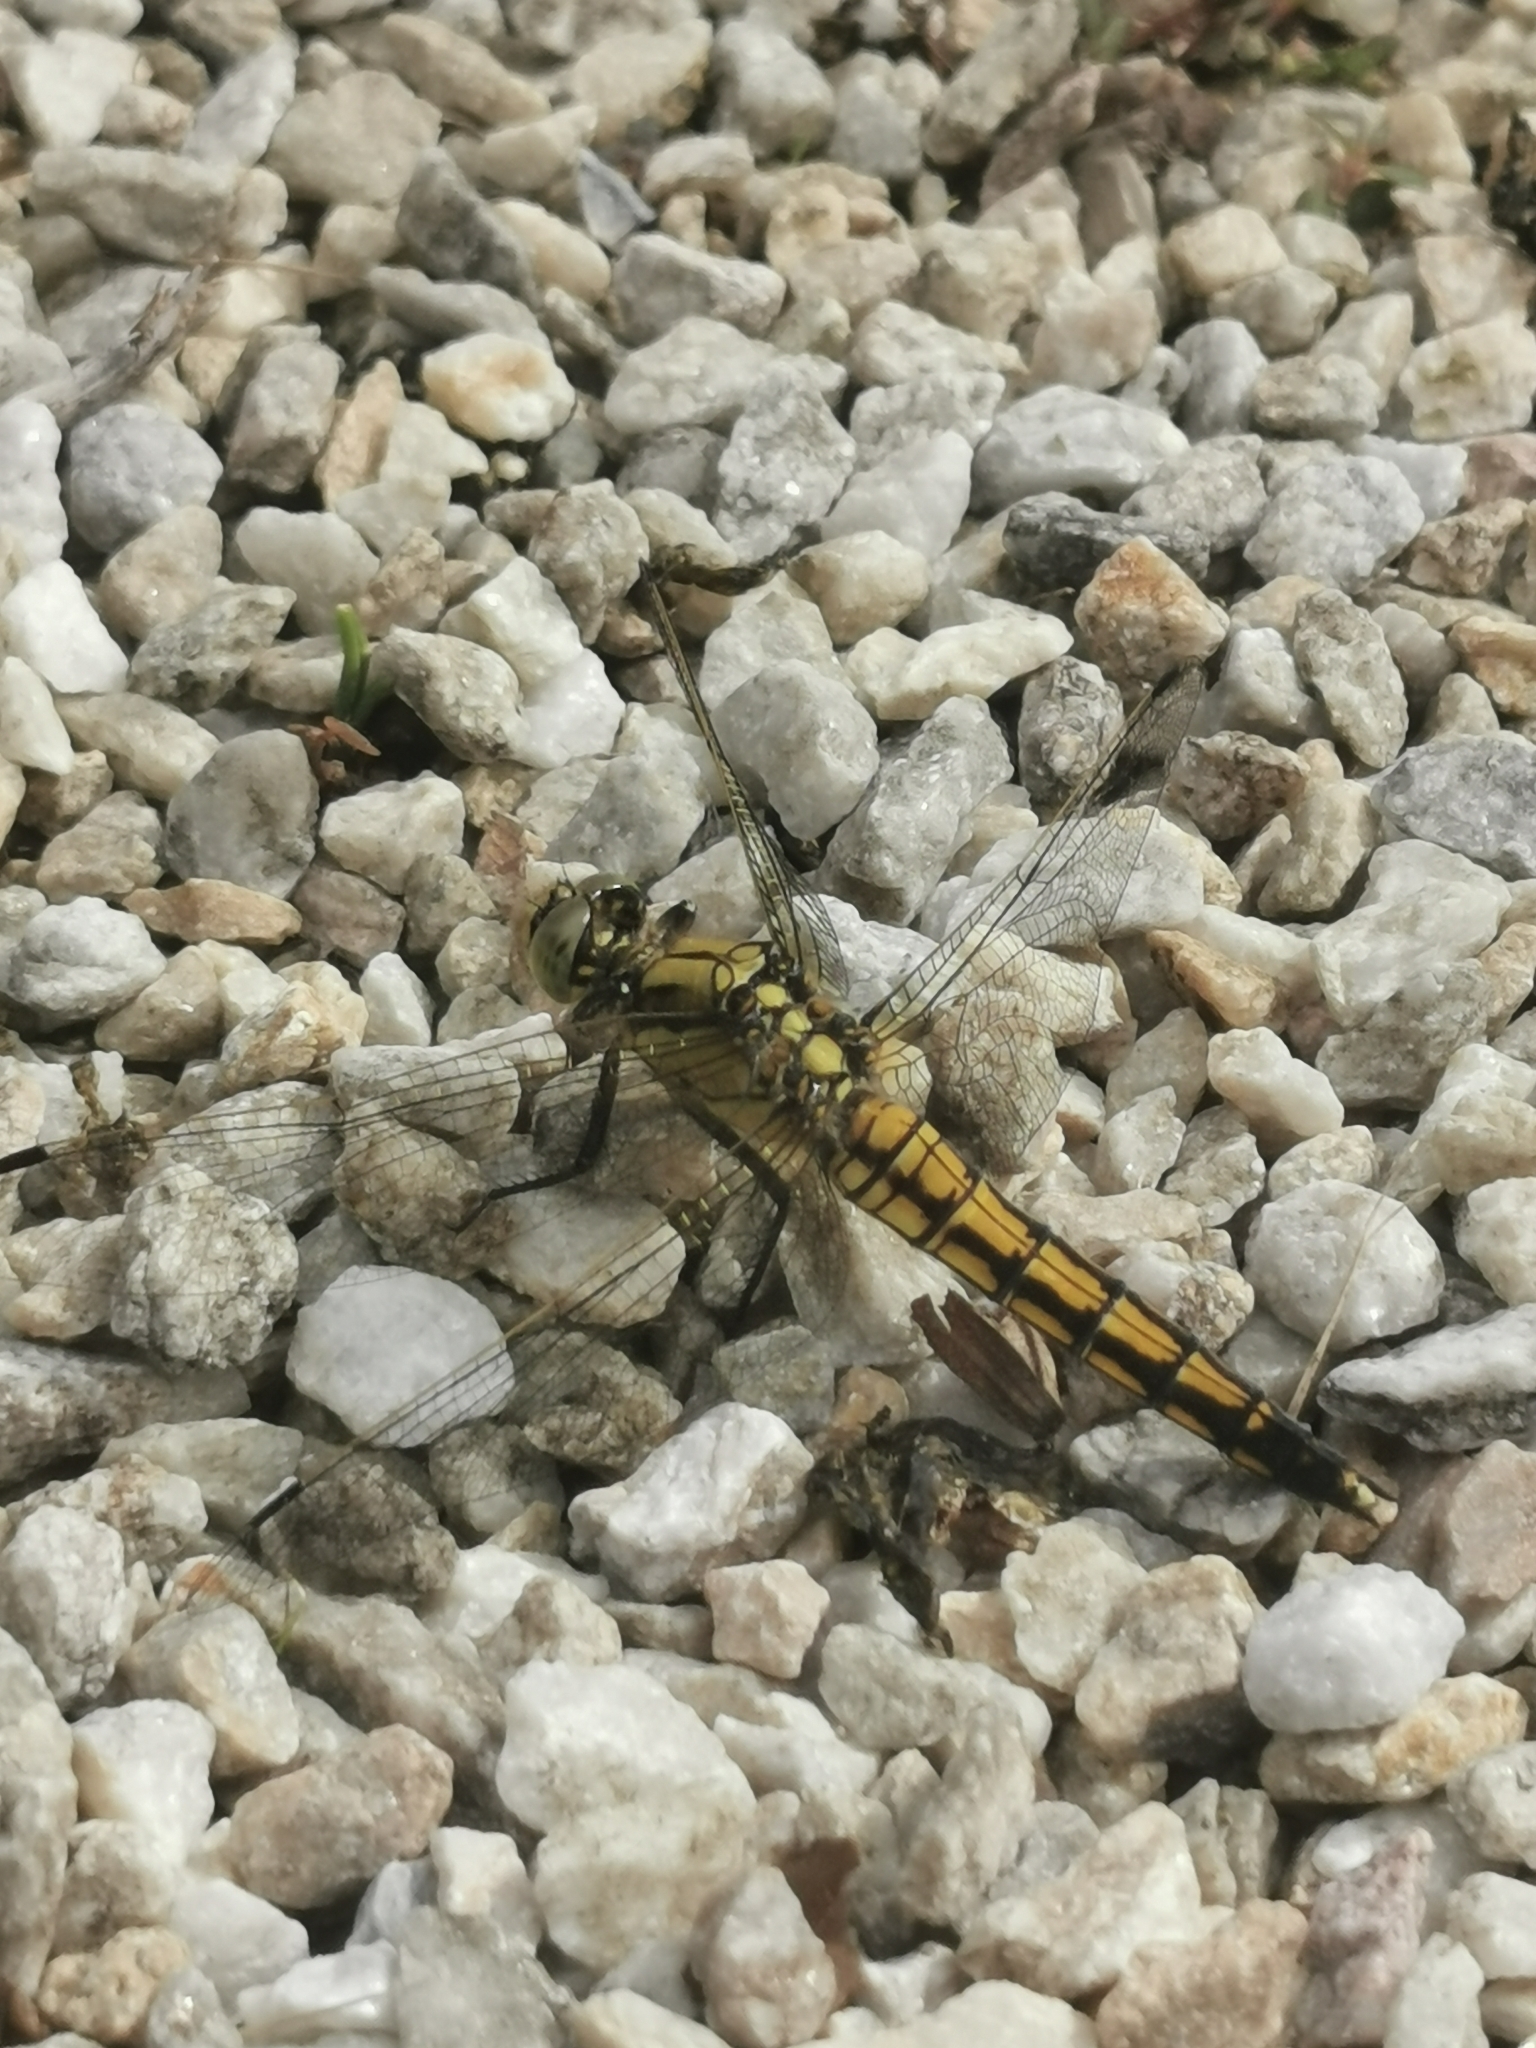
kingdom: Animalia
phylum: Arthropoda
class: Insecta
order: Odonata
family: Libellulidae
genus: Orthetrum
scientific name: Orthetrum cancellatum
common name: Black-tailed skimmer
